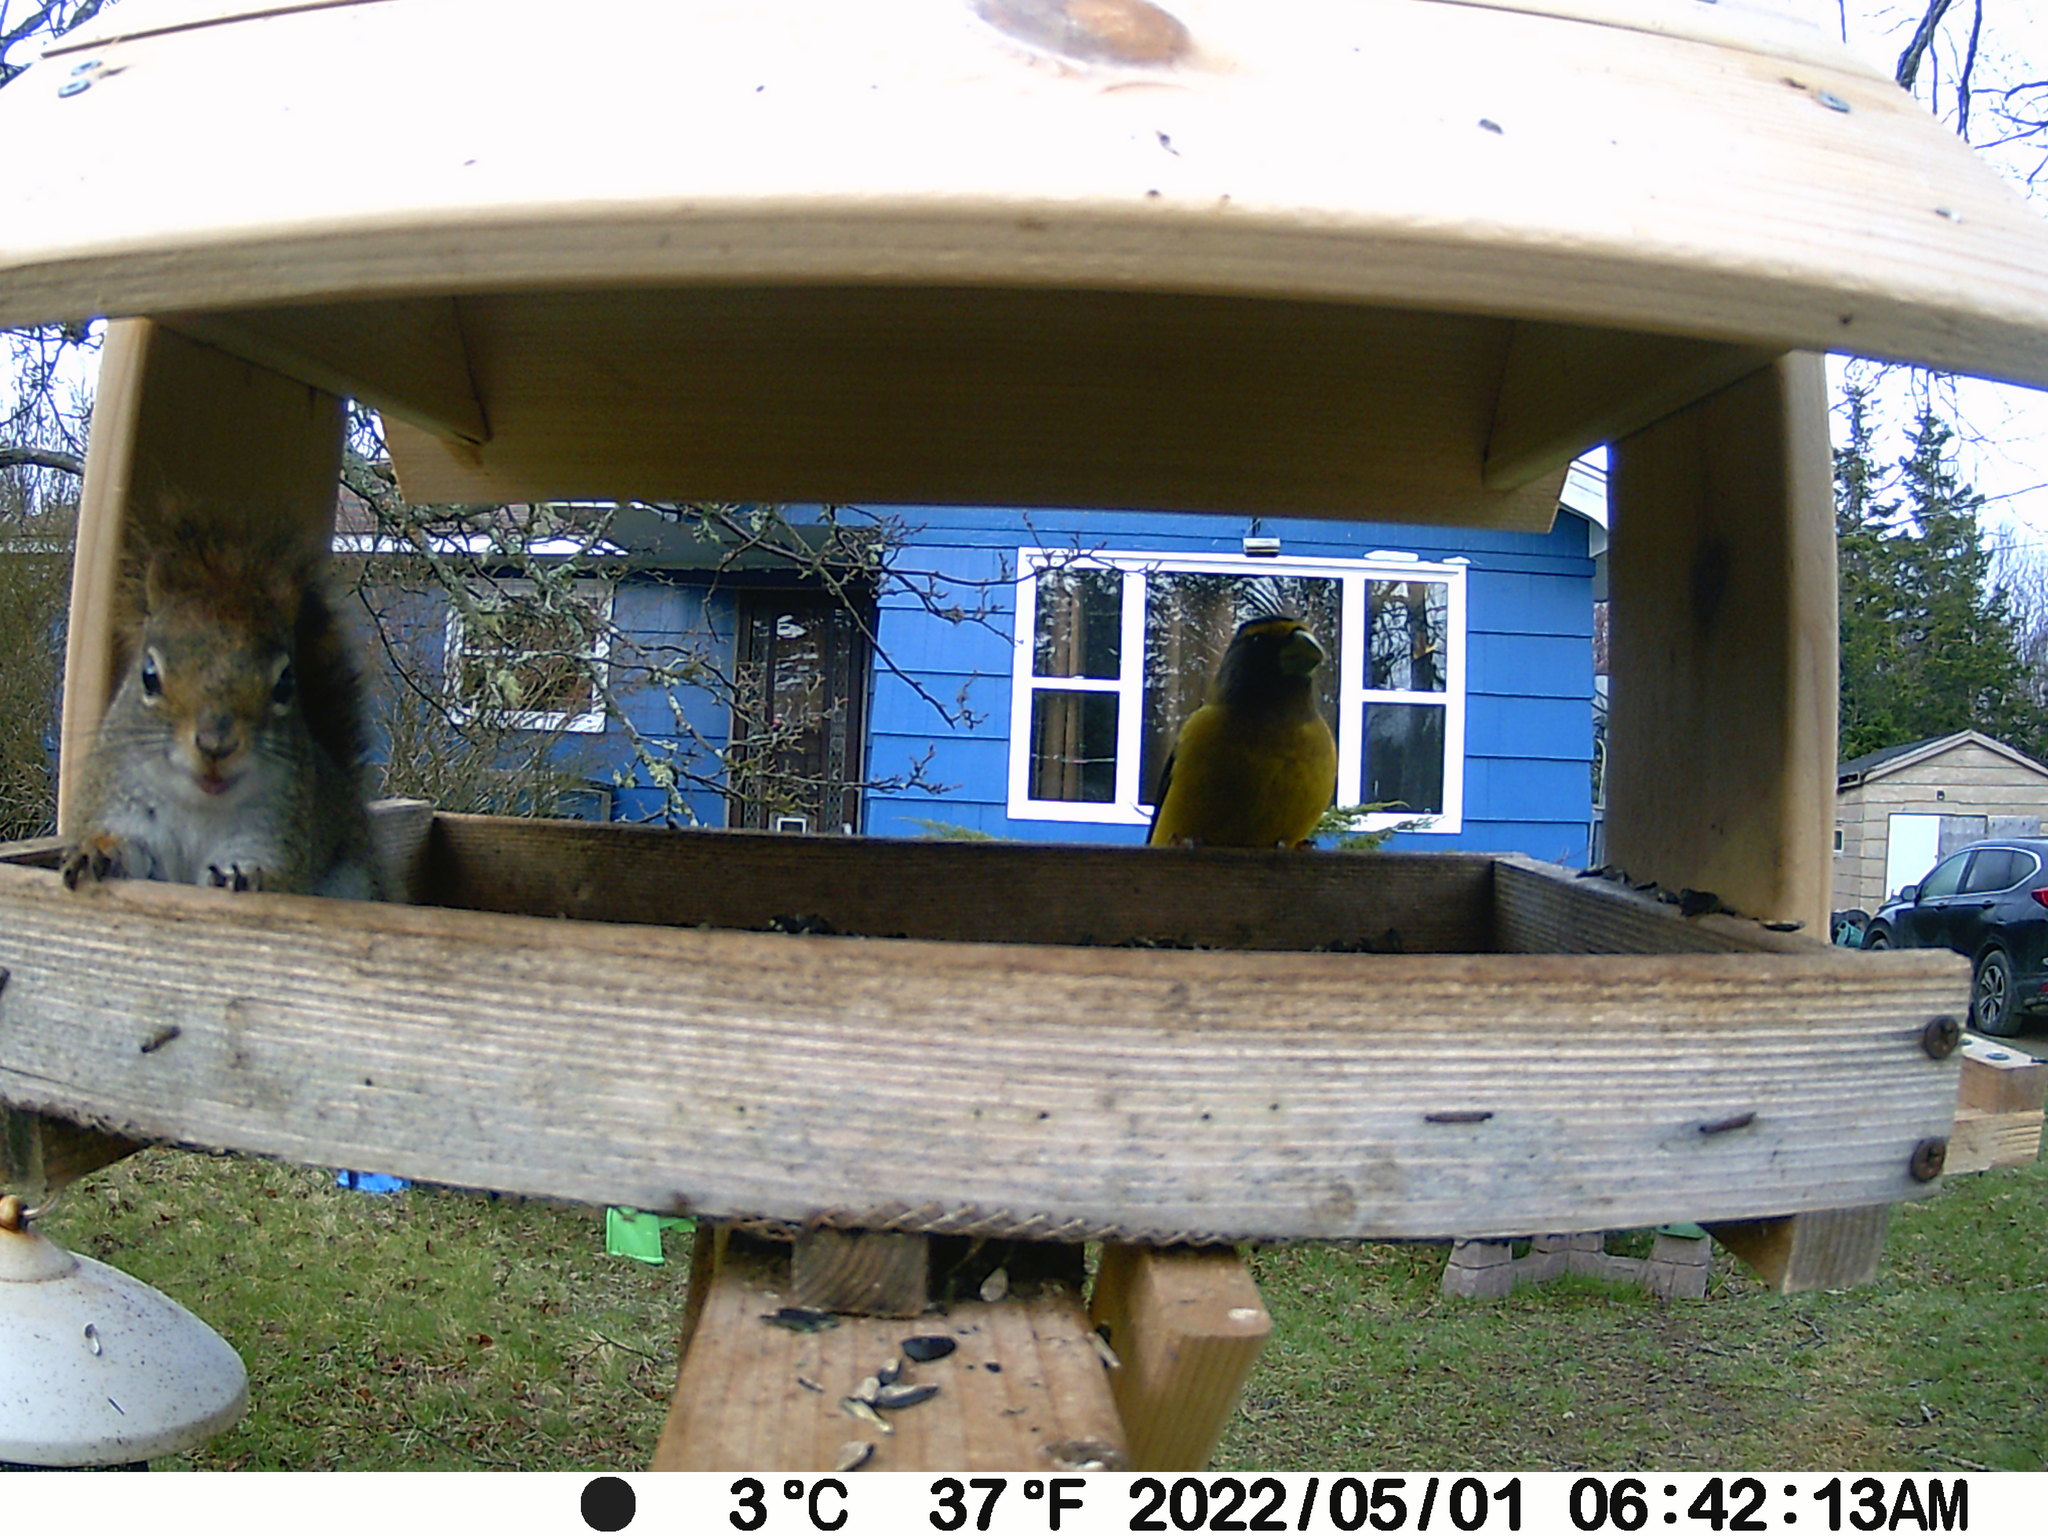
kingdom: Animalia
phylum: Chordata
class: Aves
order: Passeriformes
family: Fringillidae
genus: Hesperiphona
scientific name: Hesperiphona vespertina
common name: Evening grosbeak
